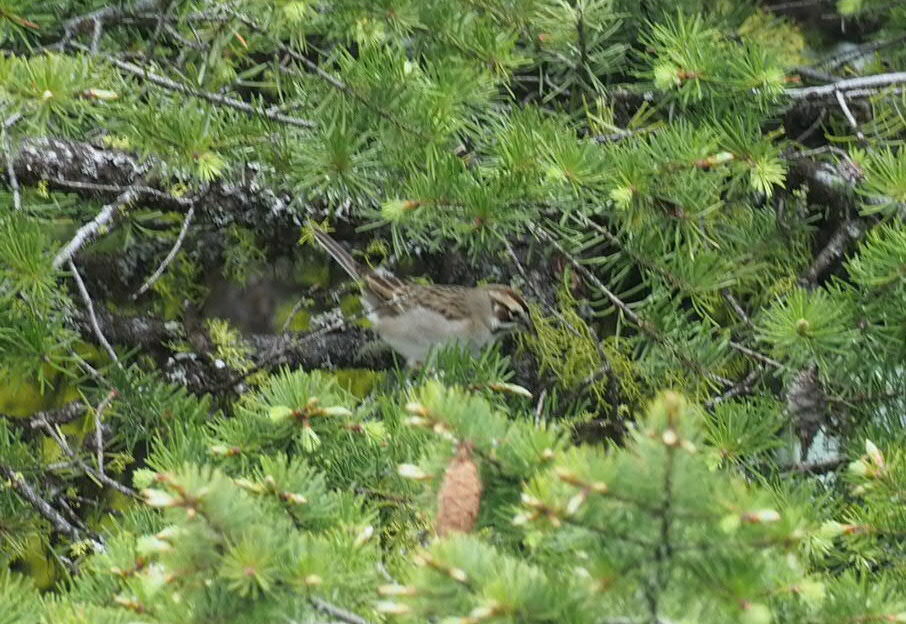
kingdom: Animalia
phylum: Chordata
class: Aves
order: Passeriformes
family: Passerellidae
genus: Chondestes
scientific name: Chondestes grammacus
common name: Lark sparrow
